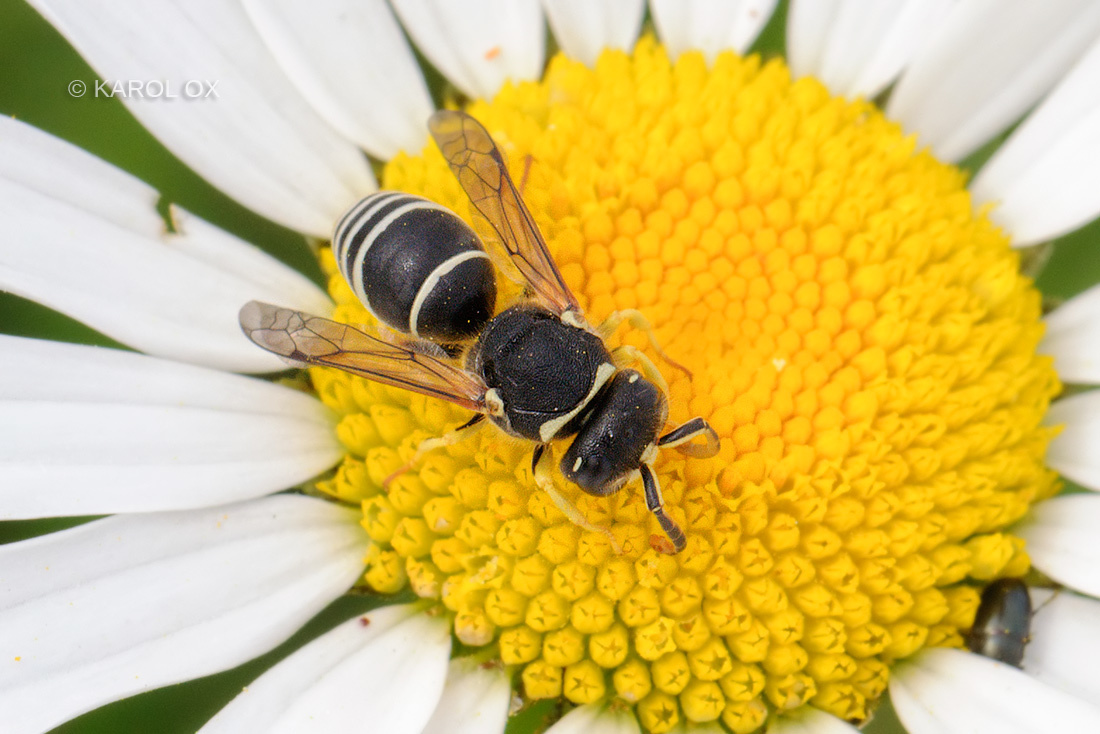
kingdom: Animalia
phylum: Arthropoda
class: Insecta
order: Hymenoptera
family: Vespidae
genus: Odynerus
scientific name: Odynerus melanocephalus
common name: Black headed mason wasp
